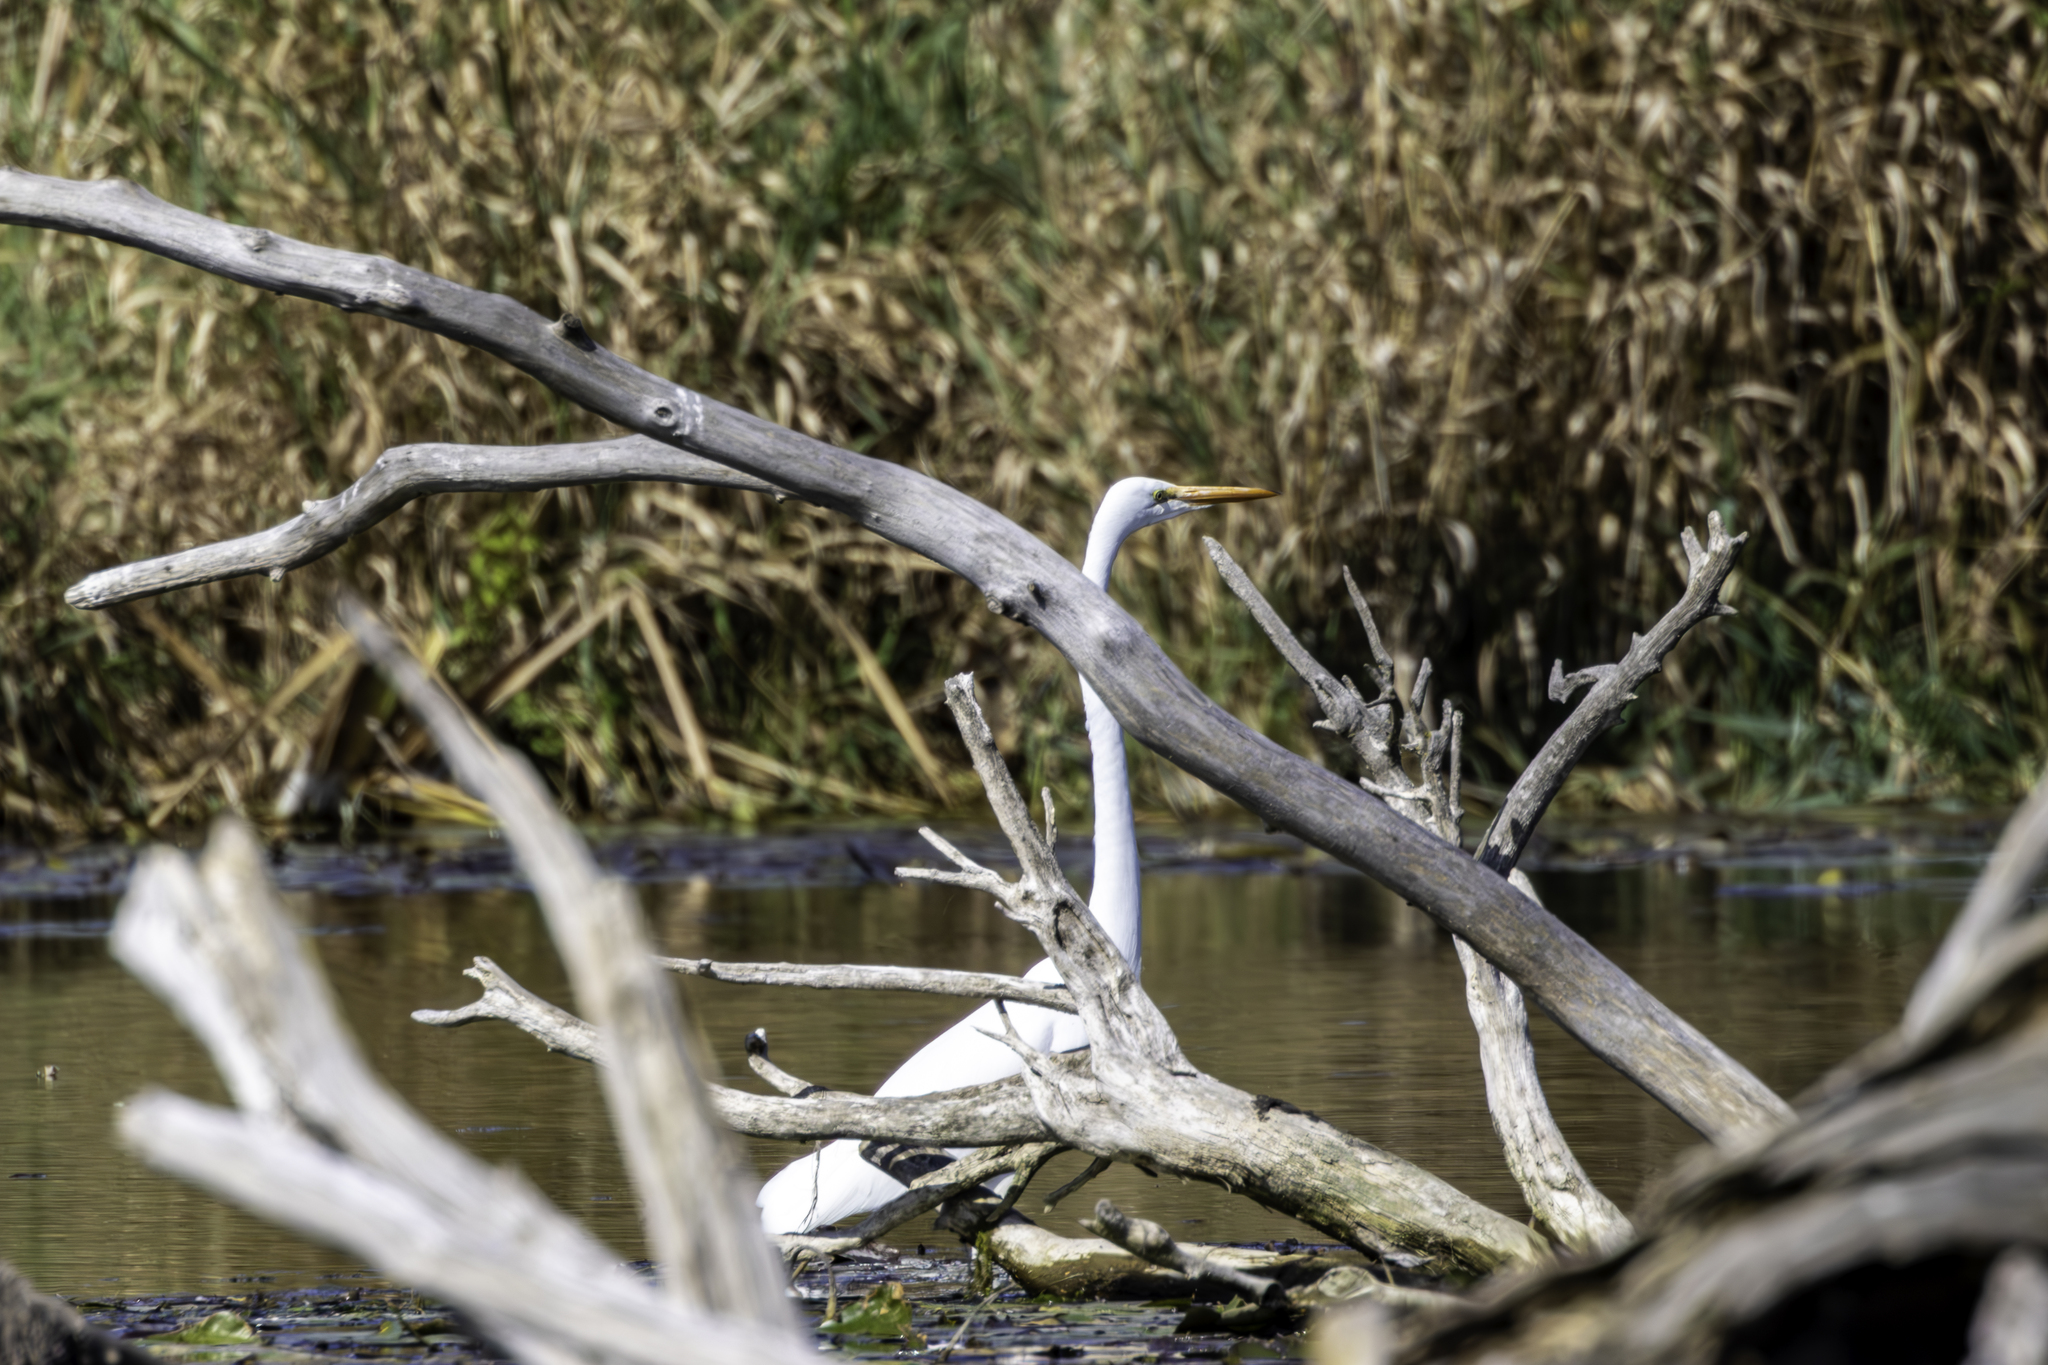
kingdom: Animalia
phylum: Chordata
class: Aves
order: Pelecaniformes
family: Ardeidae
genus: Ardea
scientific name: Ardea alba
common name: Great egret
